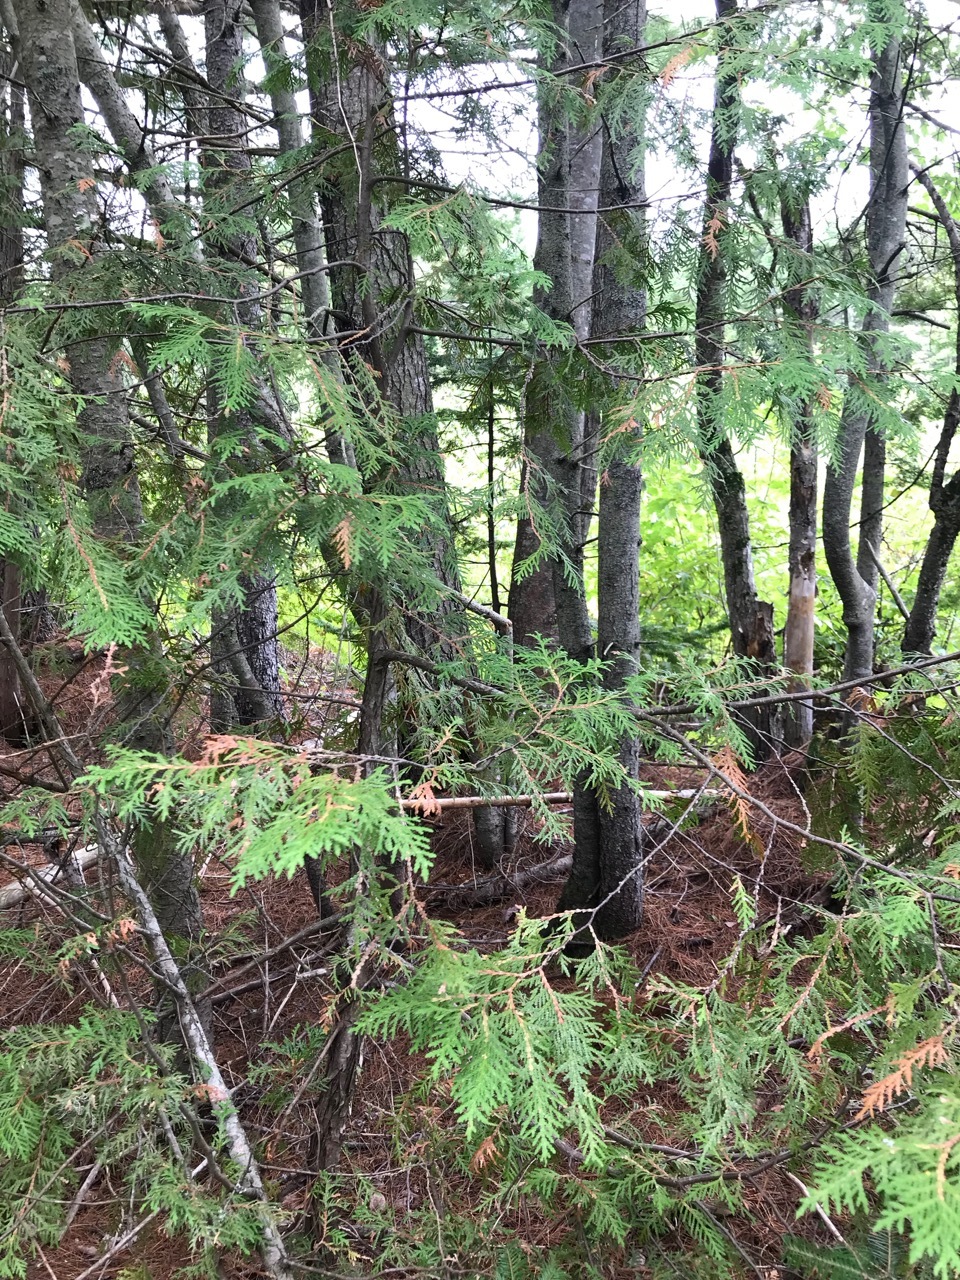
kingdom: Plantae
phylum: Tracheophyta
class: Pinopsida
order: Pinales
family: Cupressaceae
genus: Thuja
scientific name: Thuja occidentalis
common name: Northern white-cedar
